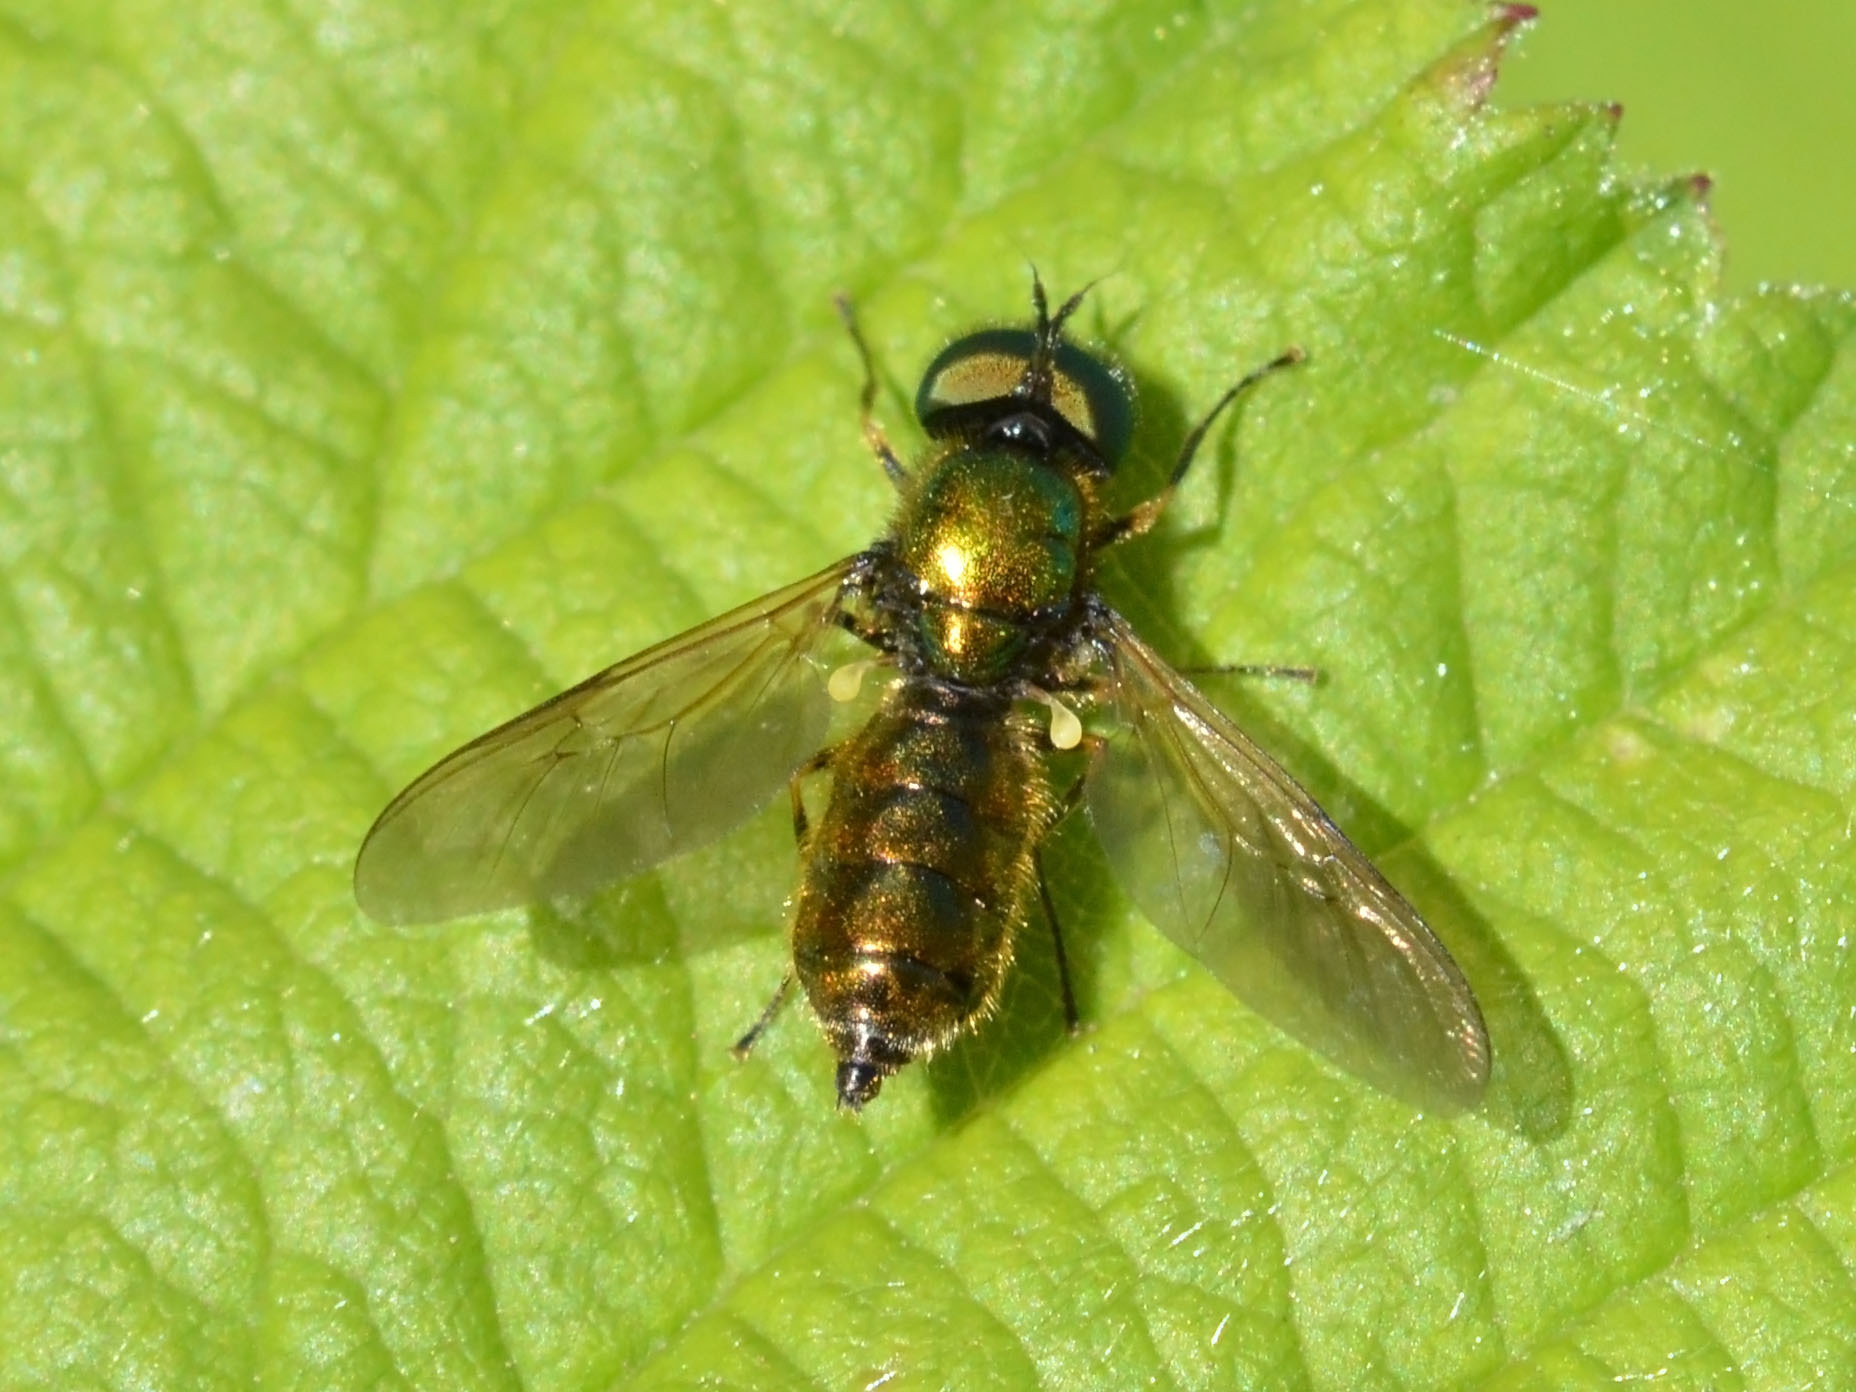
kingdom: Animalia
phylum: Arthropoda
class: Insecta
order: Diptera
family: Stratiomyidae
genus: Chloromyia
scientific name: Chloromyia formosa
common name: Soldier fly
